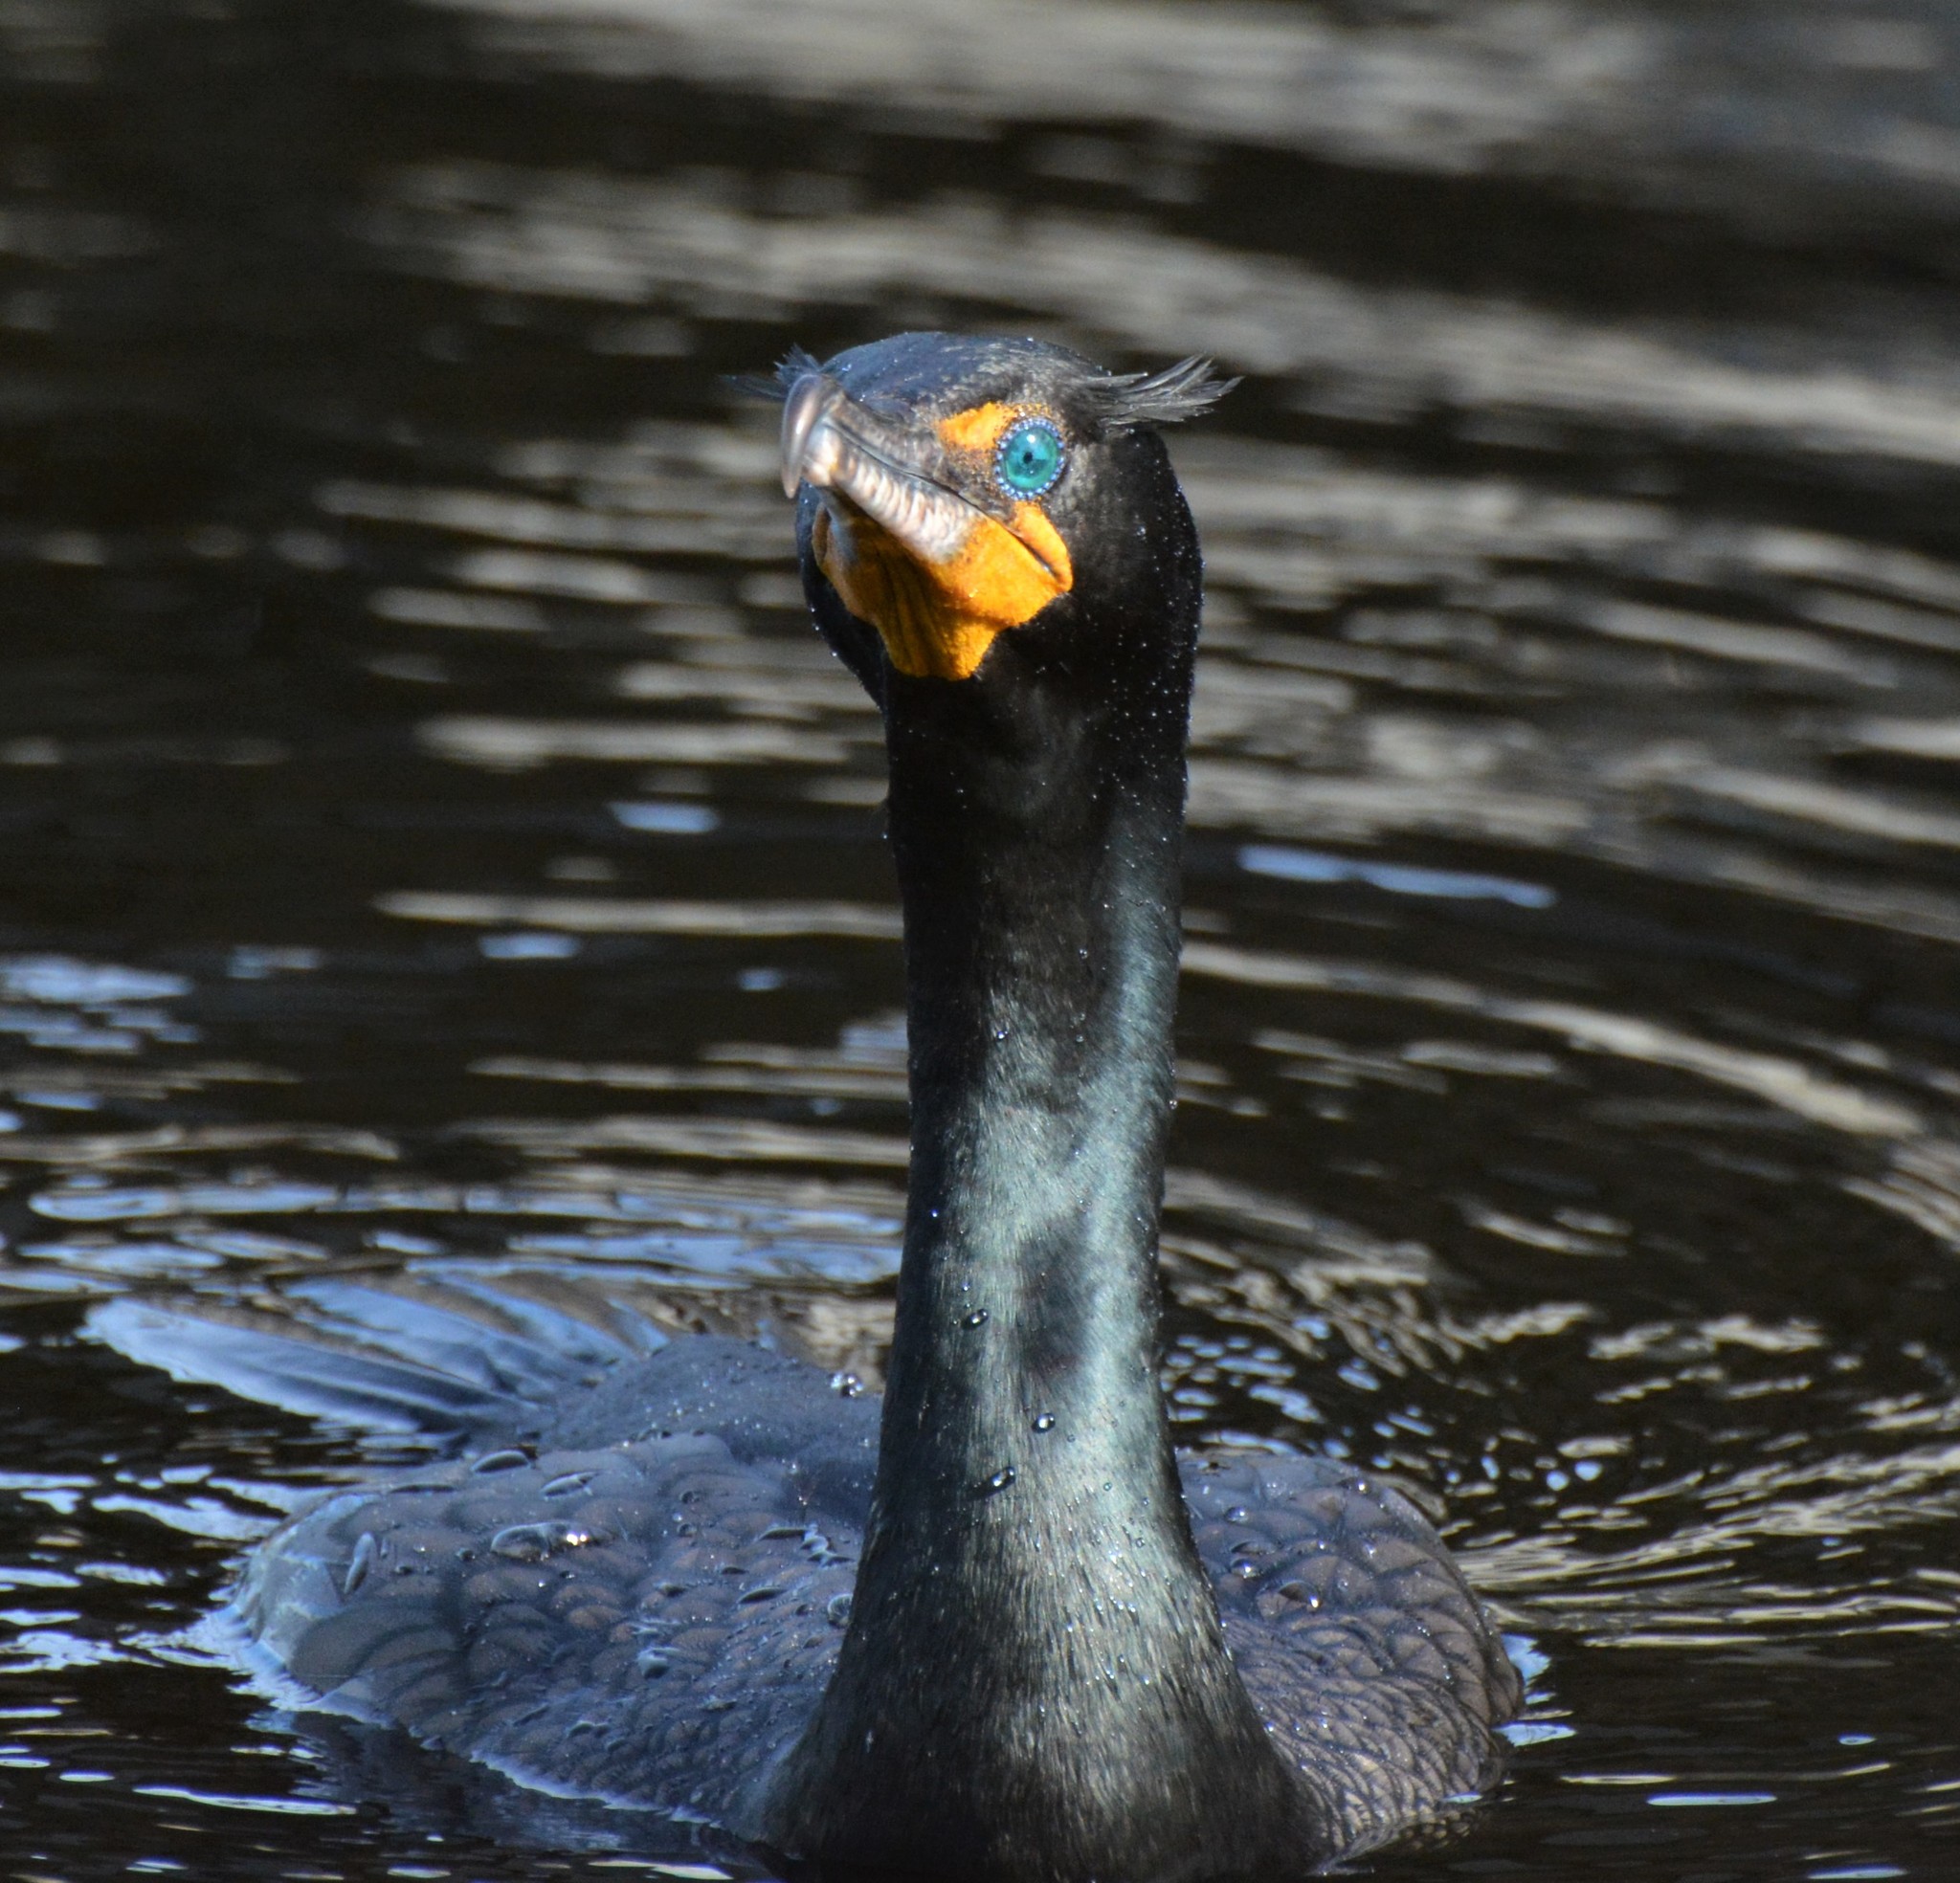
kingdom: Animalia
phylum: Chordata
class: Aves
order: Suliformes
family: Phalacrocoracidae
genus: Phalacrocorax
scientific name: Phalacrocorax auritus
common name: Double-crested cormorant
